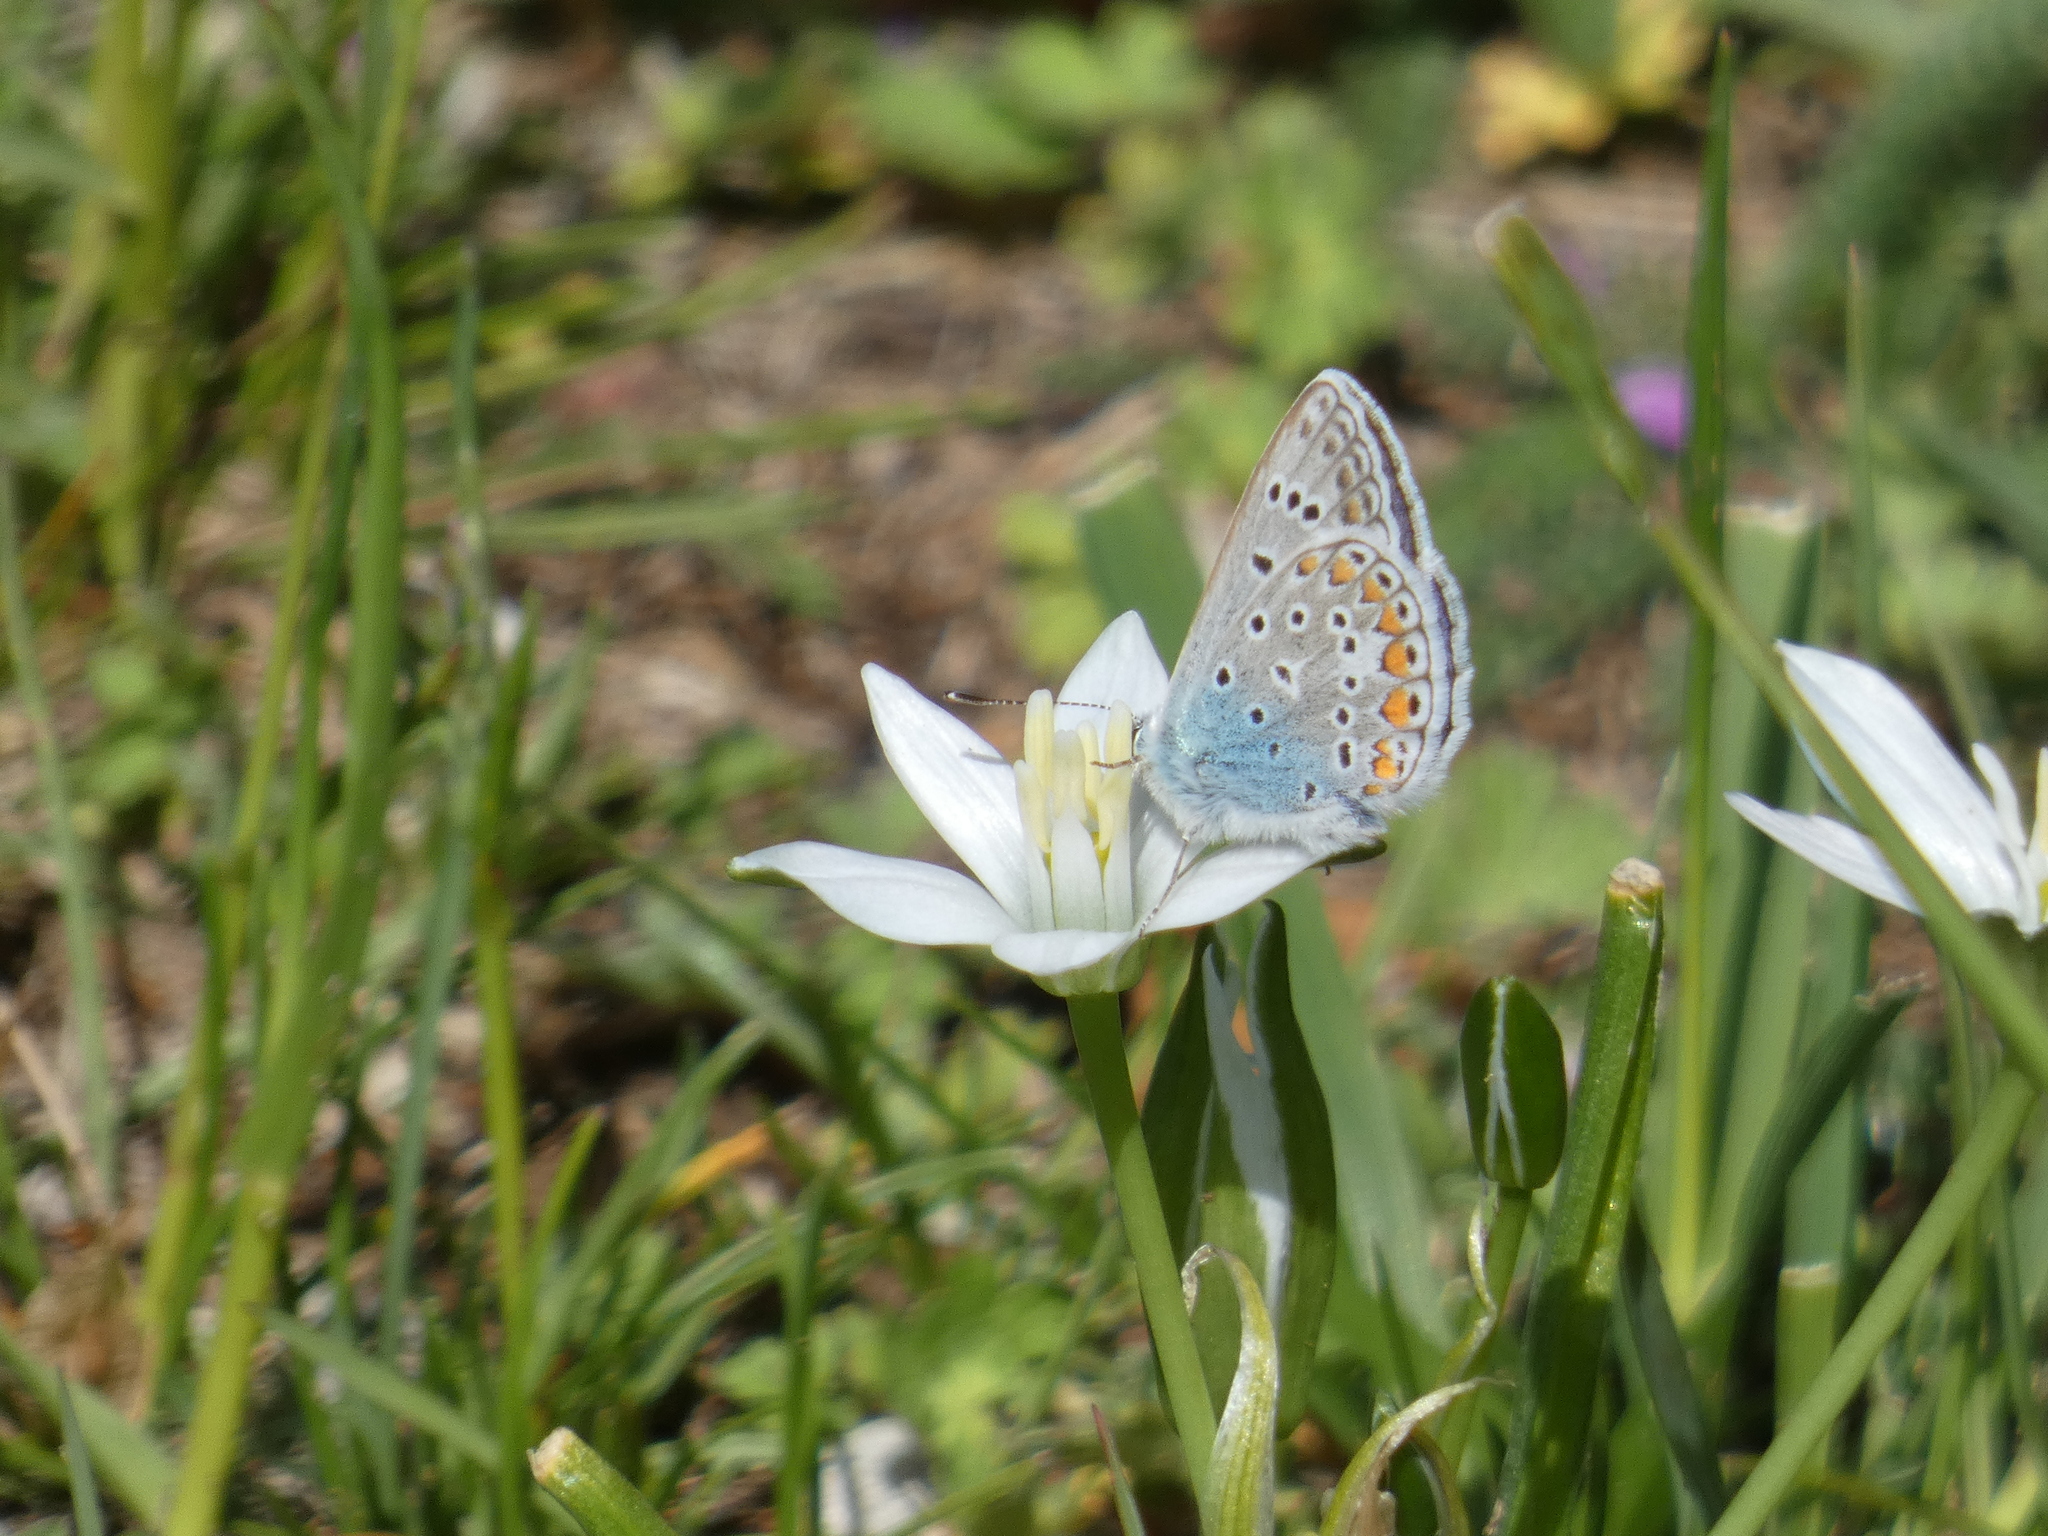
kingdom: Animalia
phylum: Arthropoda
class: Insecta
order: Lepidoptera
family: Lycaenidae
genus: Polyommatus
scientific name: Polyommatus icarus
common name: Common blue
